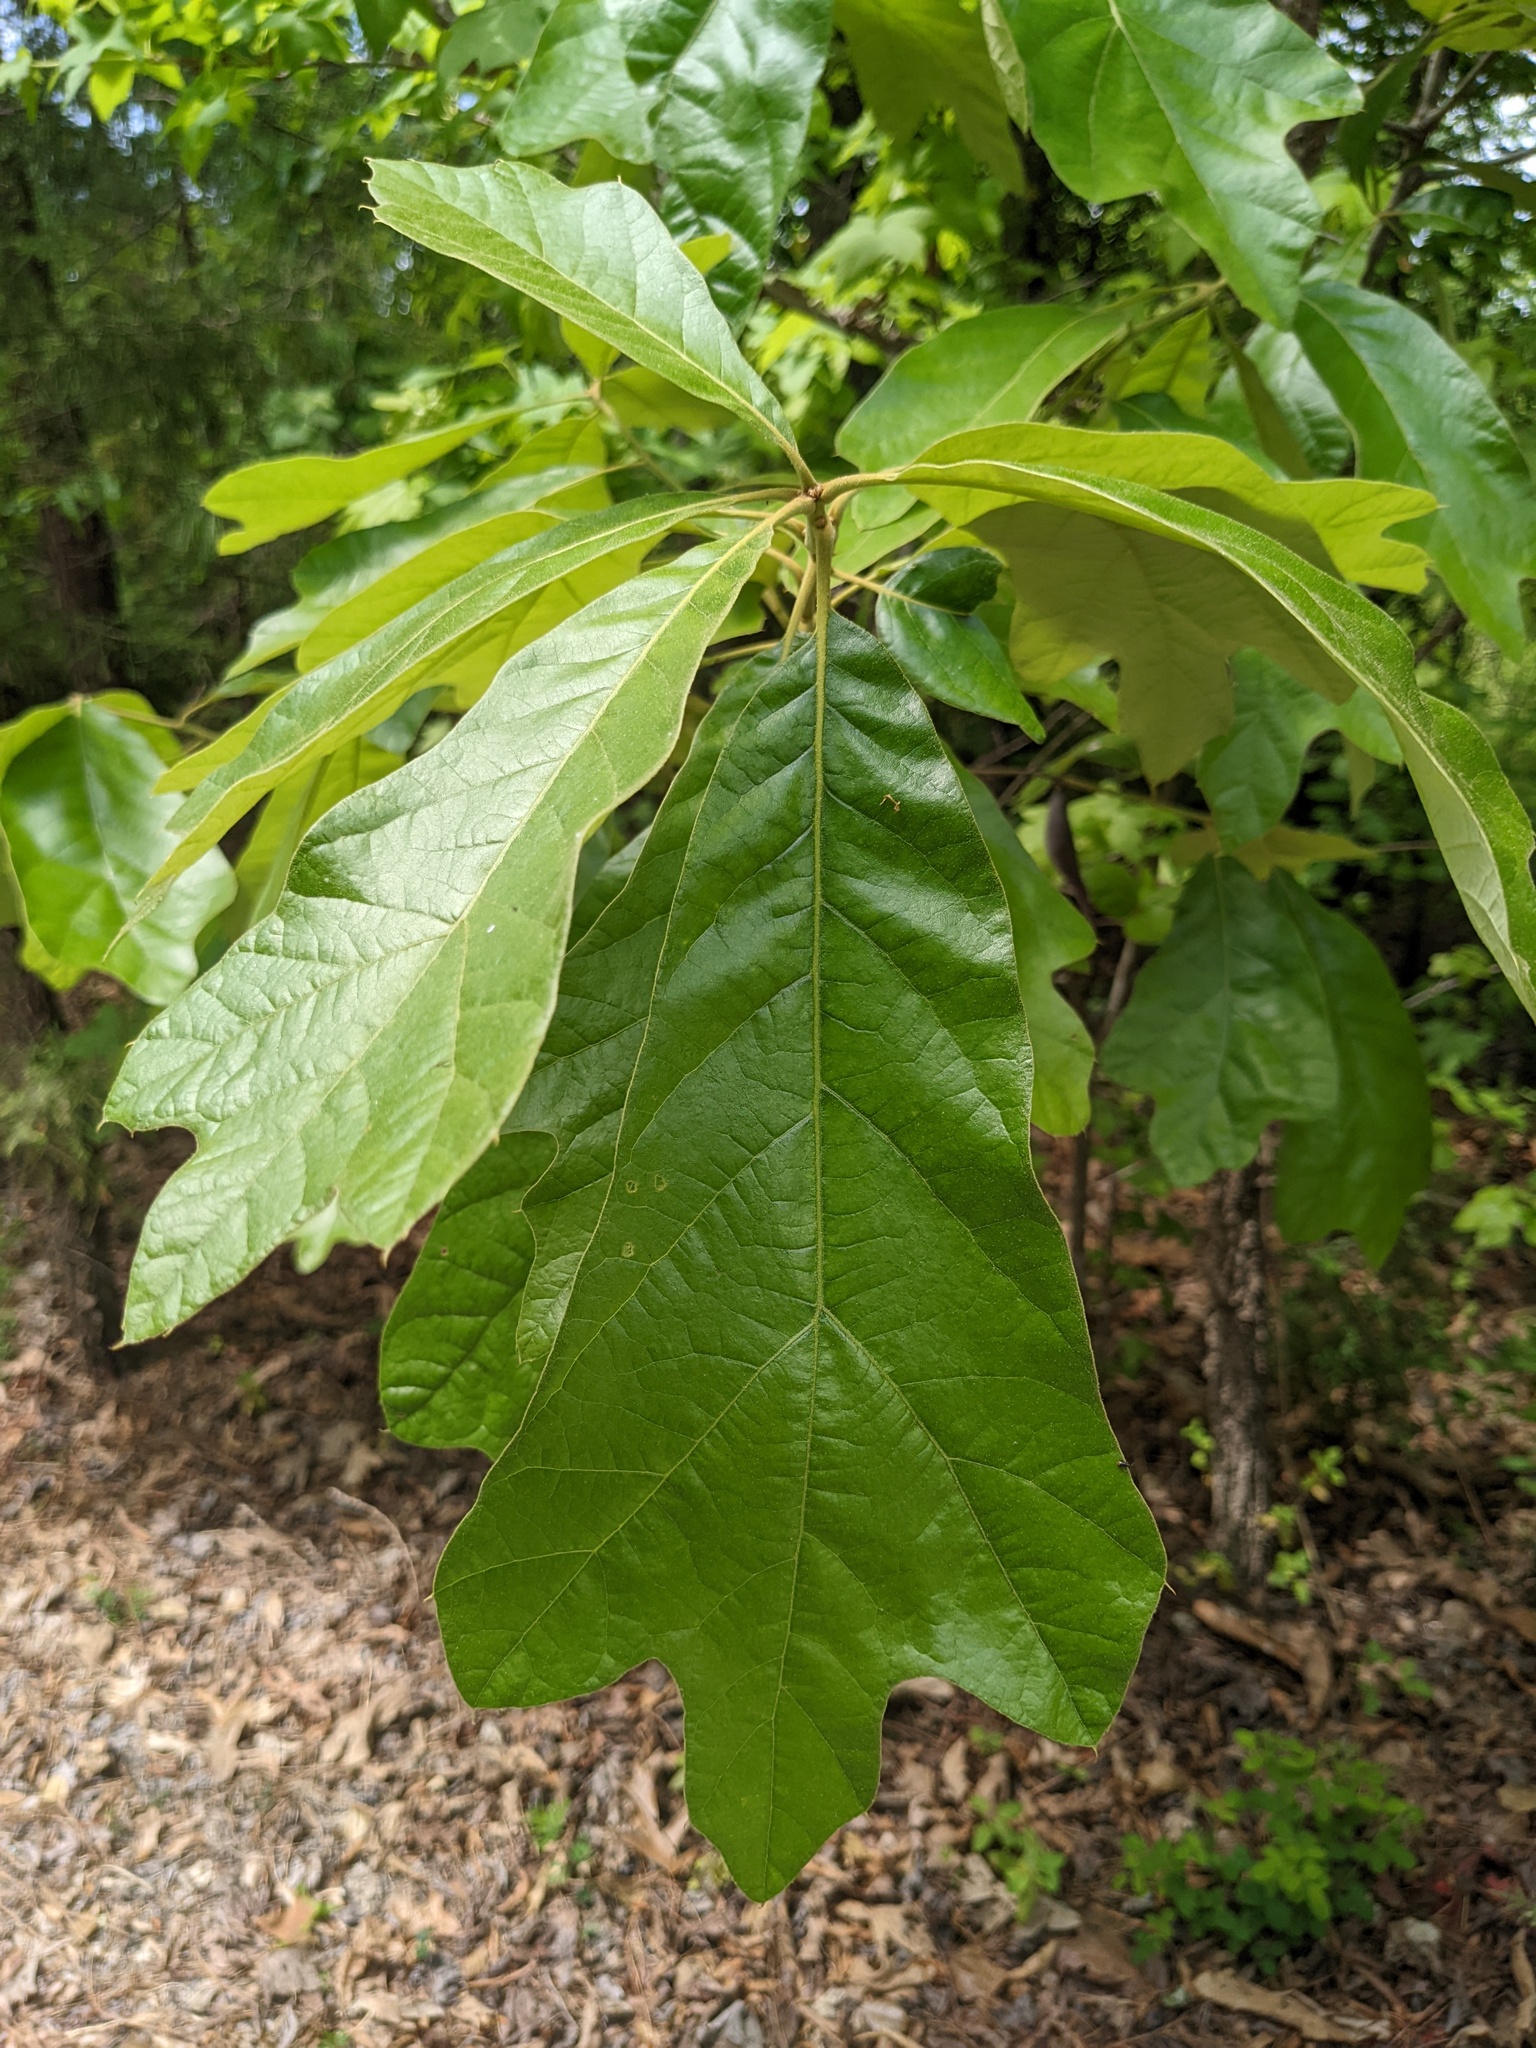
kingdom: Plantae
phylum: Tracheophyta
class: Magnoliopsida
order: Fagales
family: Fagaceae
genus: Quercus
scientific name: Quercus falcata
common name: Southern red oak
